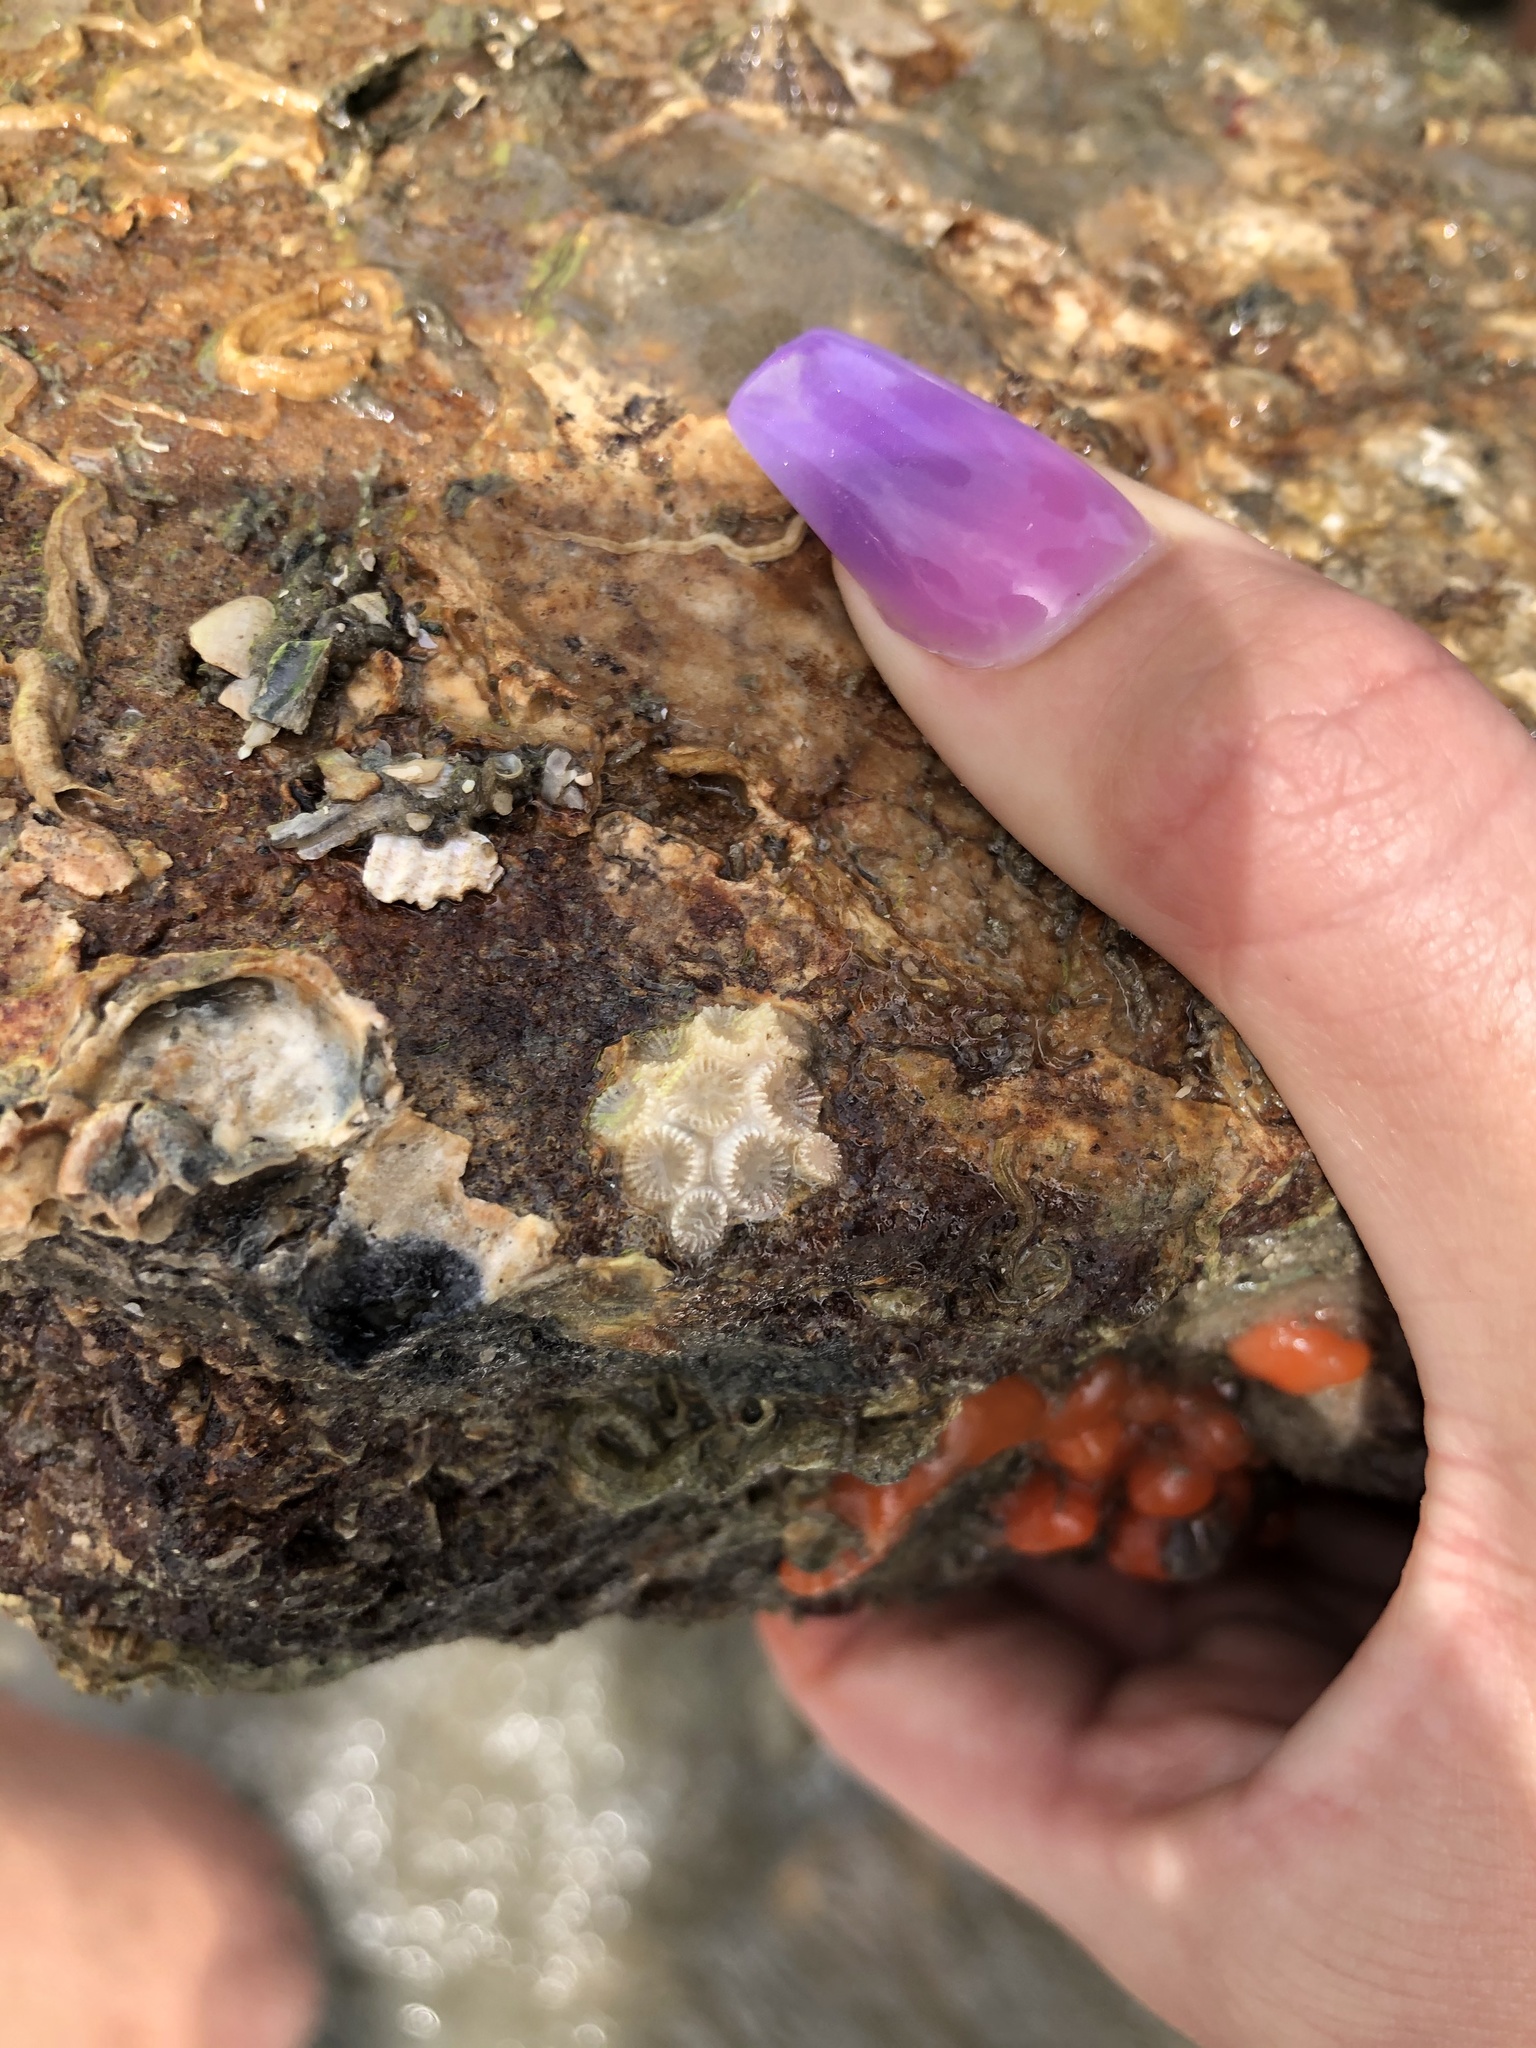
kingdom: Animalia
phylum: Cnidaria
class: Anthozoa
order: Scleractinia
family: Astrangiidae
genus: Astrangia
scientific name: Astrangia poculata
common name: Northern star coral
